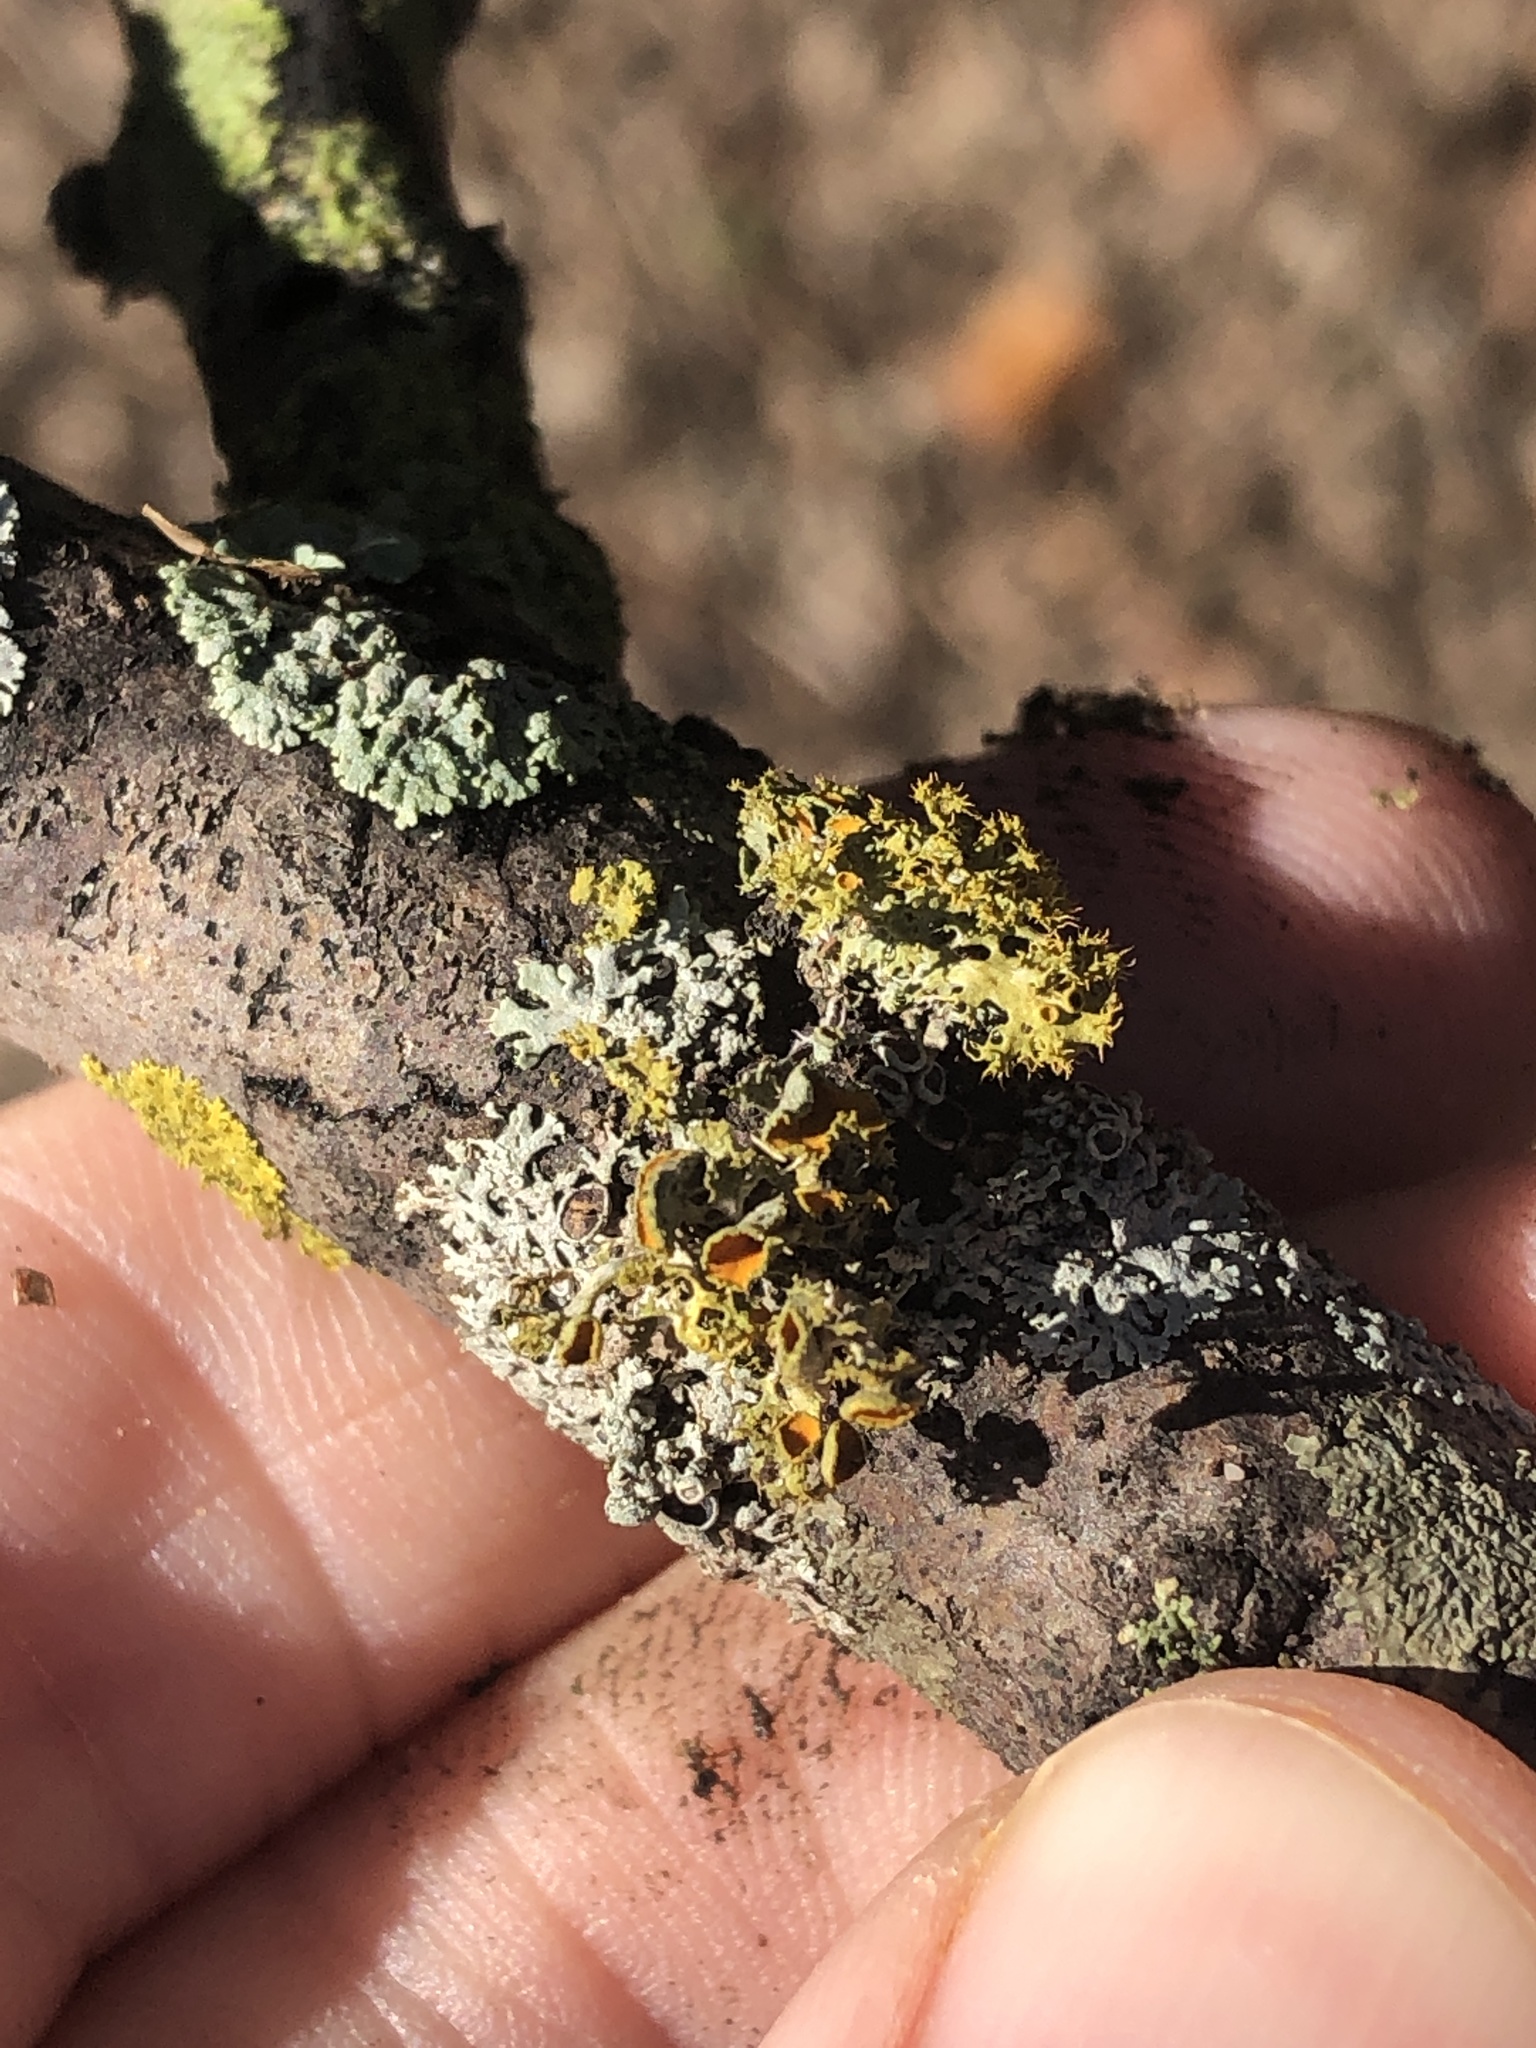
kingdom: Fungi
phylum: Ascomycota
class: Lecanoromycetes
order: Teloschistales
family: Teloschistaceae
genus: Niorma
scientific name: Niorma chrysophthalma
